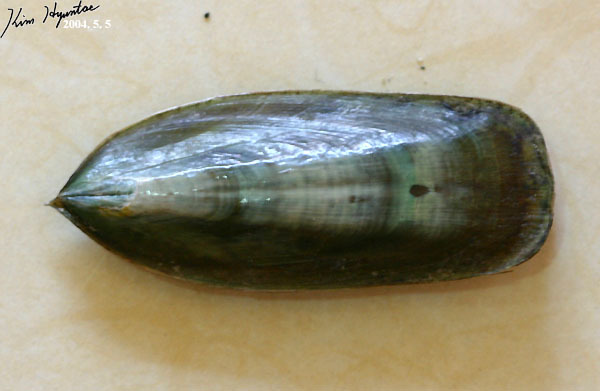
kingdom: Animalia
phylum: Brachiopoda
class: Lingulata
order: Lingulida
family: Lingulidae
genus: Lingula
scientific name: Lingula anatina
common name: Common oriental lamp shell
